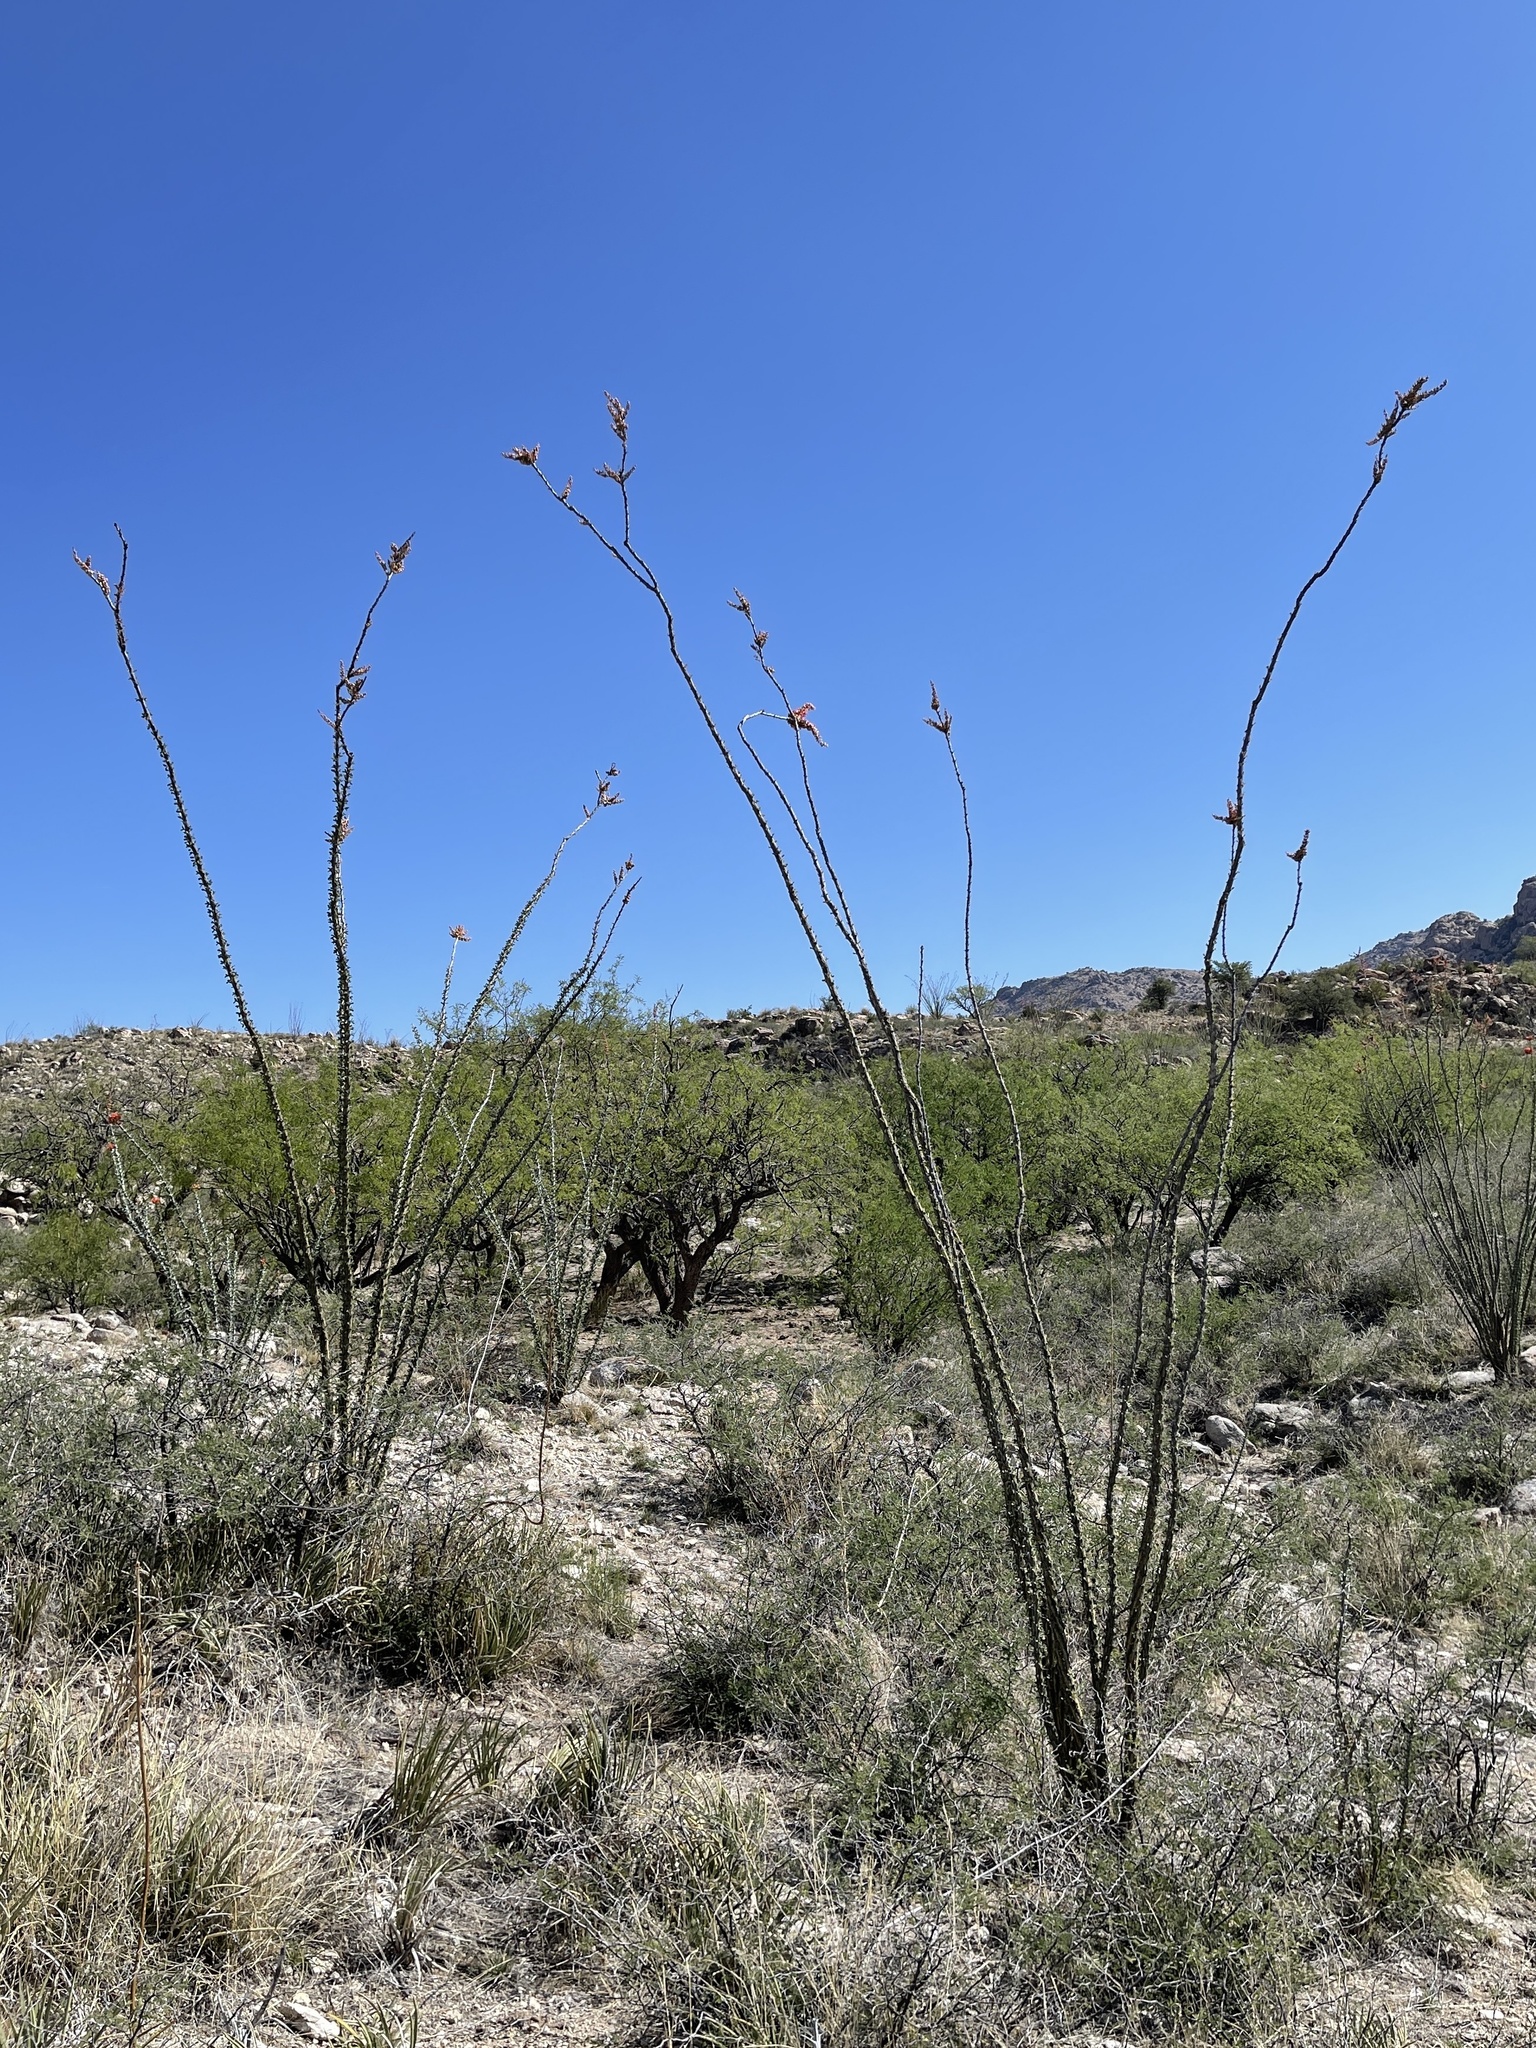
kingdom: Plantae
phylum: Tracheophyta
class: Magnoliopsida
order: Ericales
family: Fouquieriaceae
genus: Fouquieria
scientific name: Fouquieria splendens
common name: Vine-cactus
